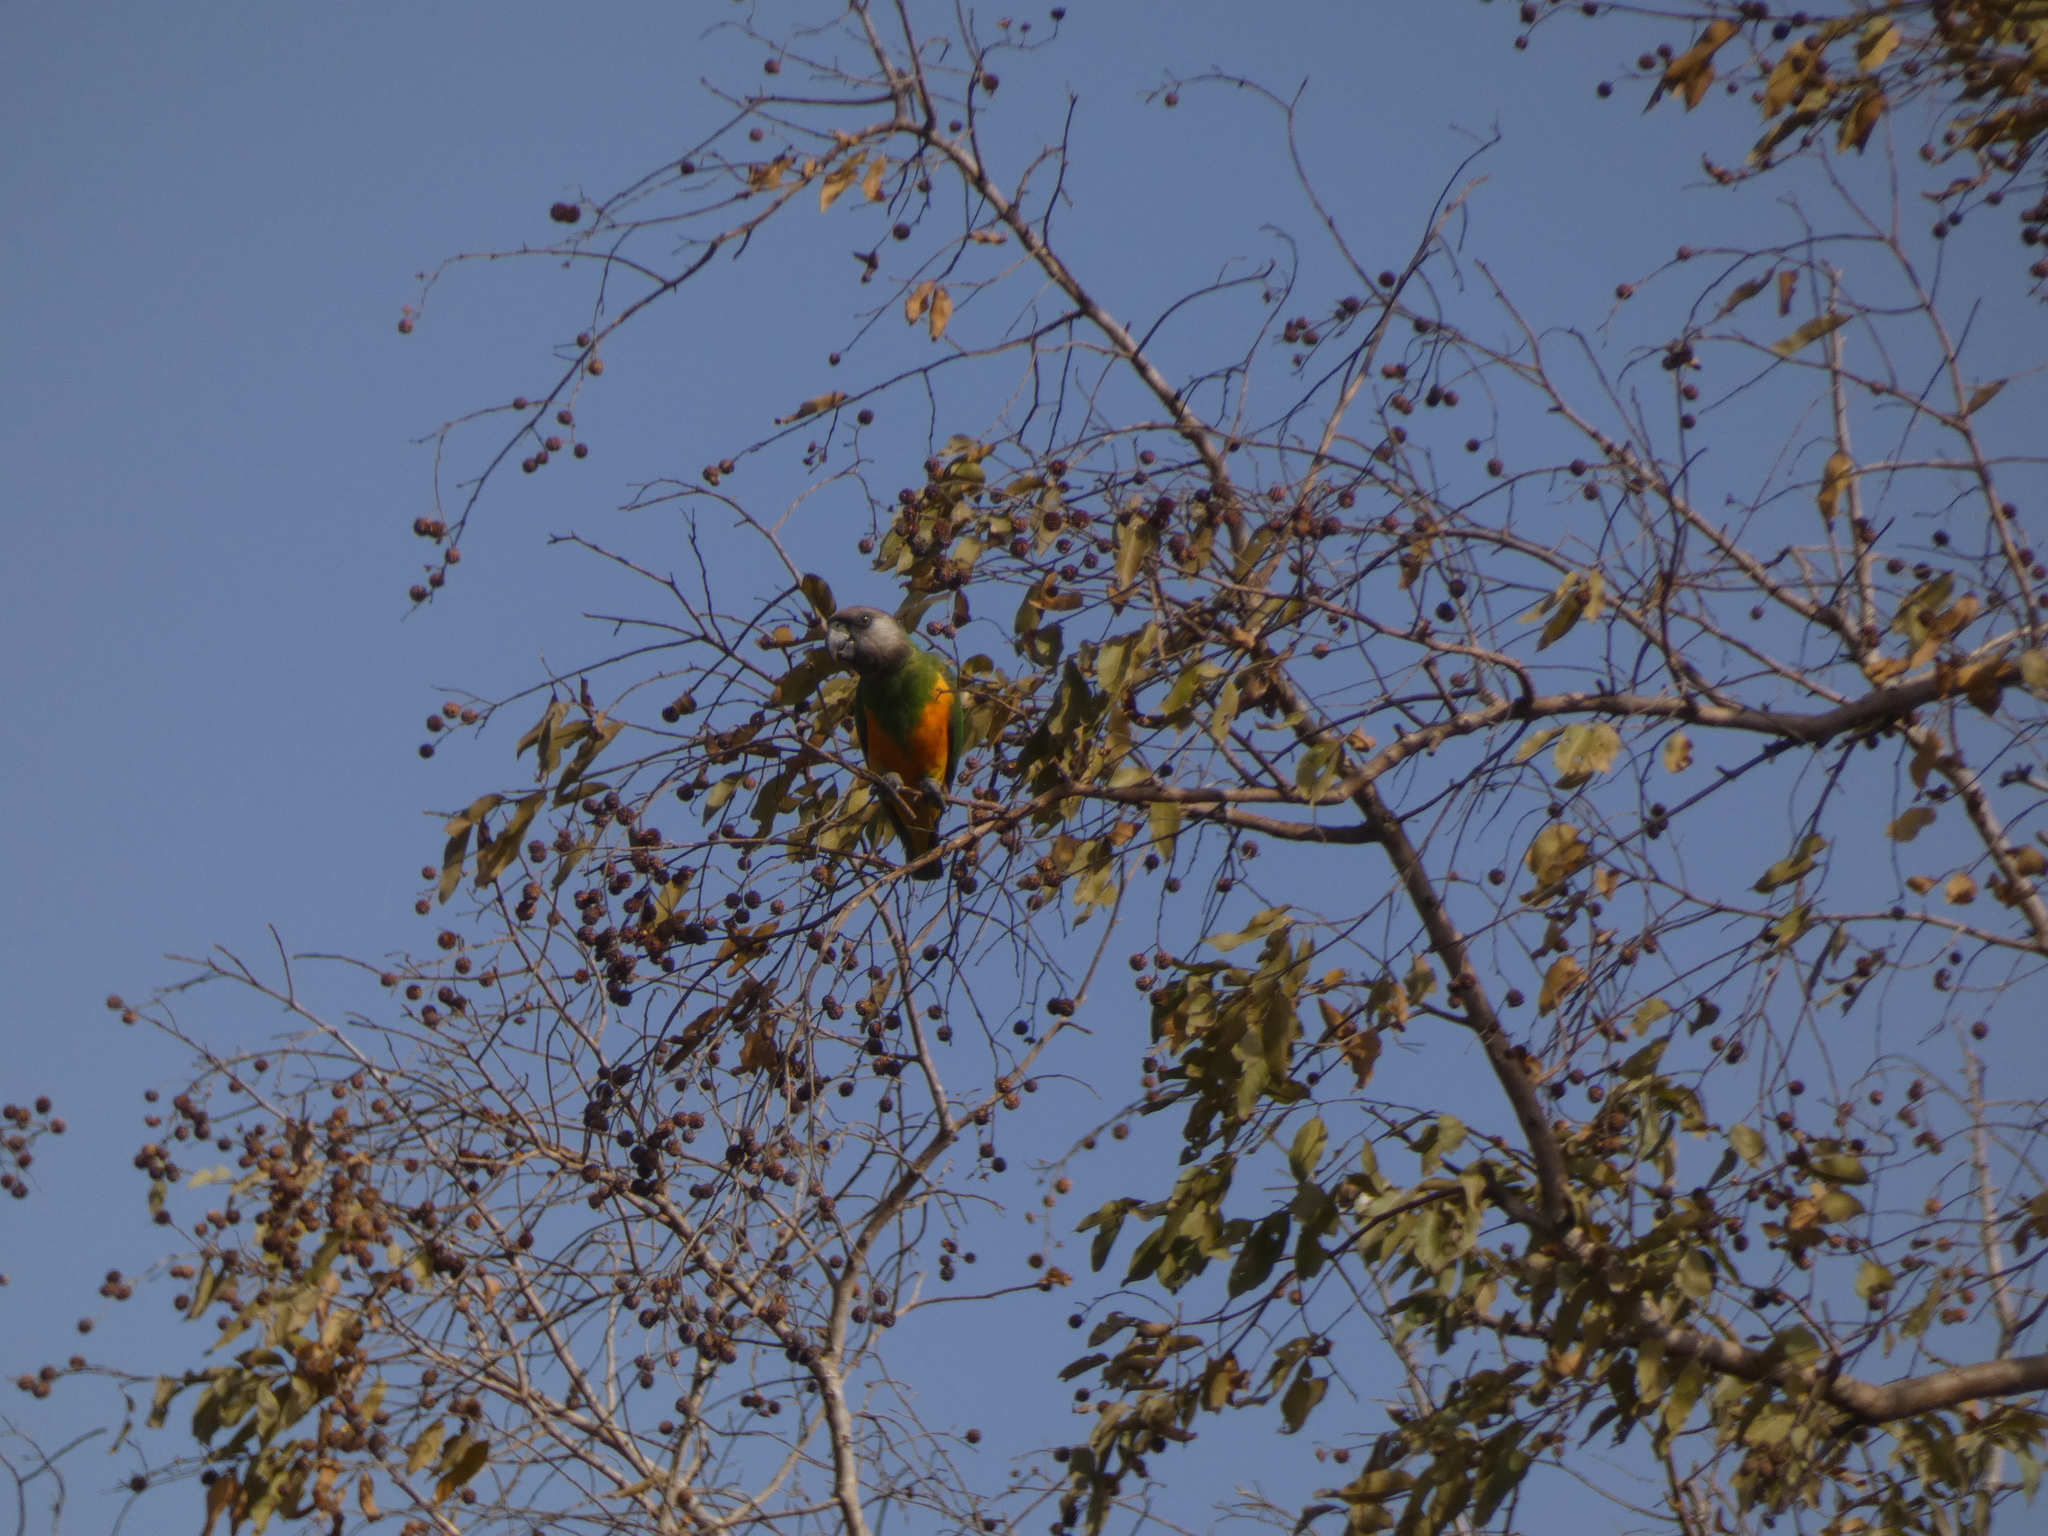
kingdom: Animalia
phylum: Chordata
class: Aves
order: Psittaciformes
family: Psittacidae
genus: Poicephalus
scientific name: Poicephalus senegalus
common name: Senegal parrot
